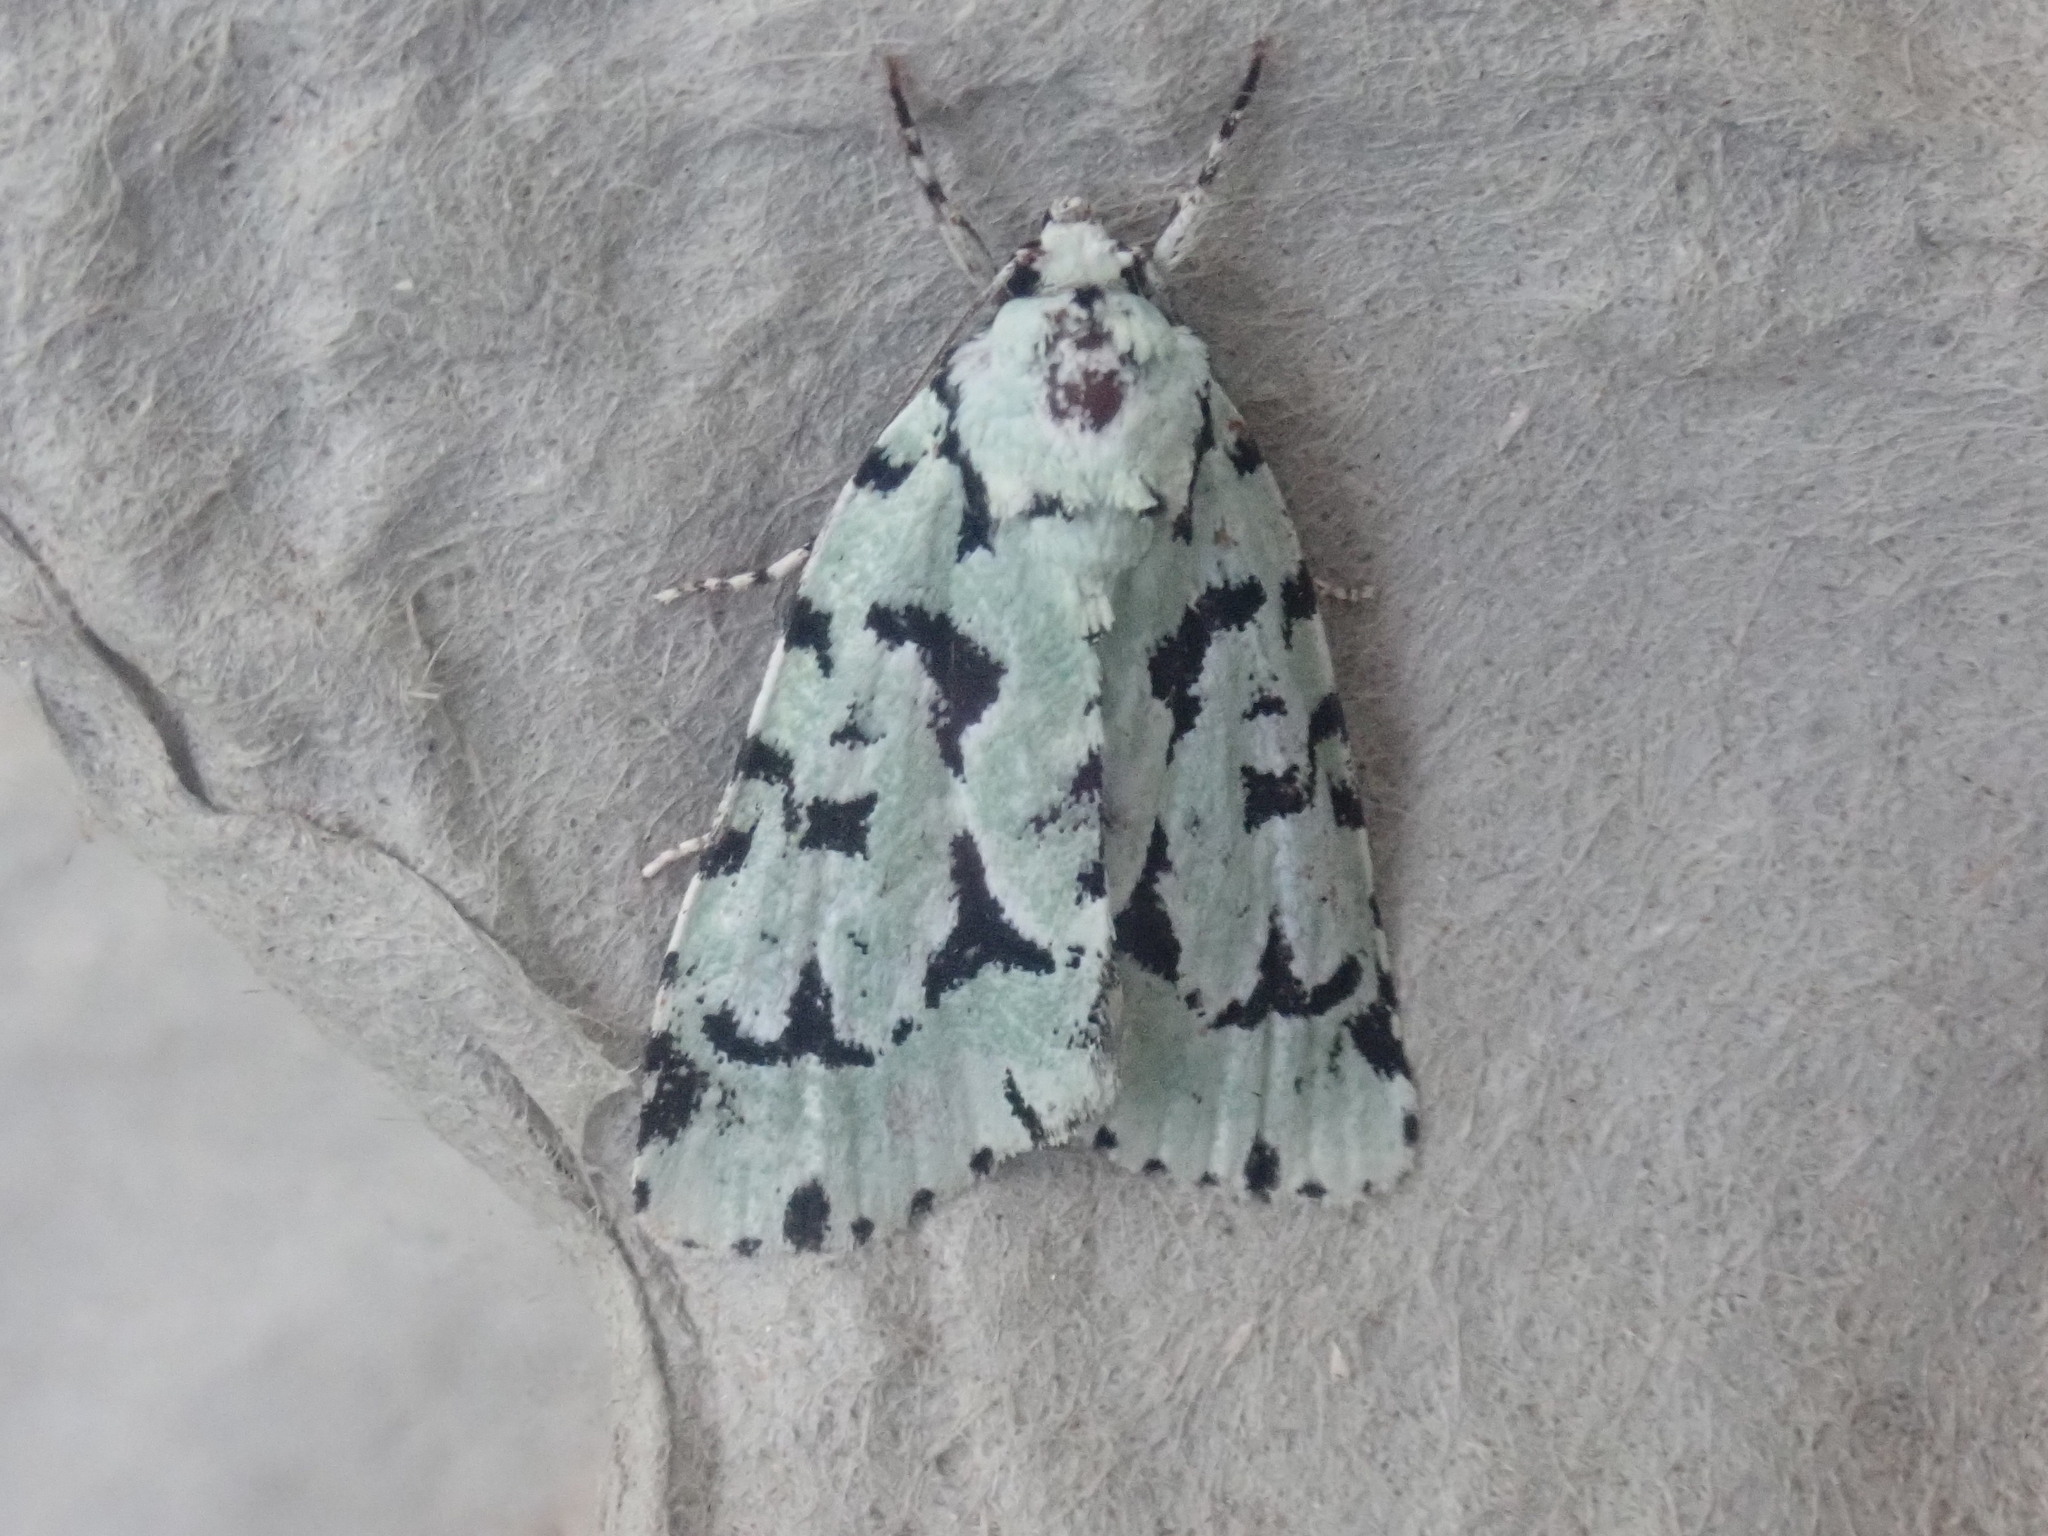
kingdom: Animalia
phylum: Arthropoda
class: Insecta
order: Lepidoptera
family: Noctuidae
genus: Acronicta
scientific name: Acronicta fallax
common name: Green marvel
